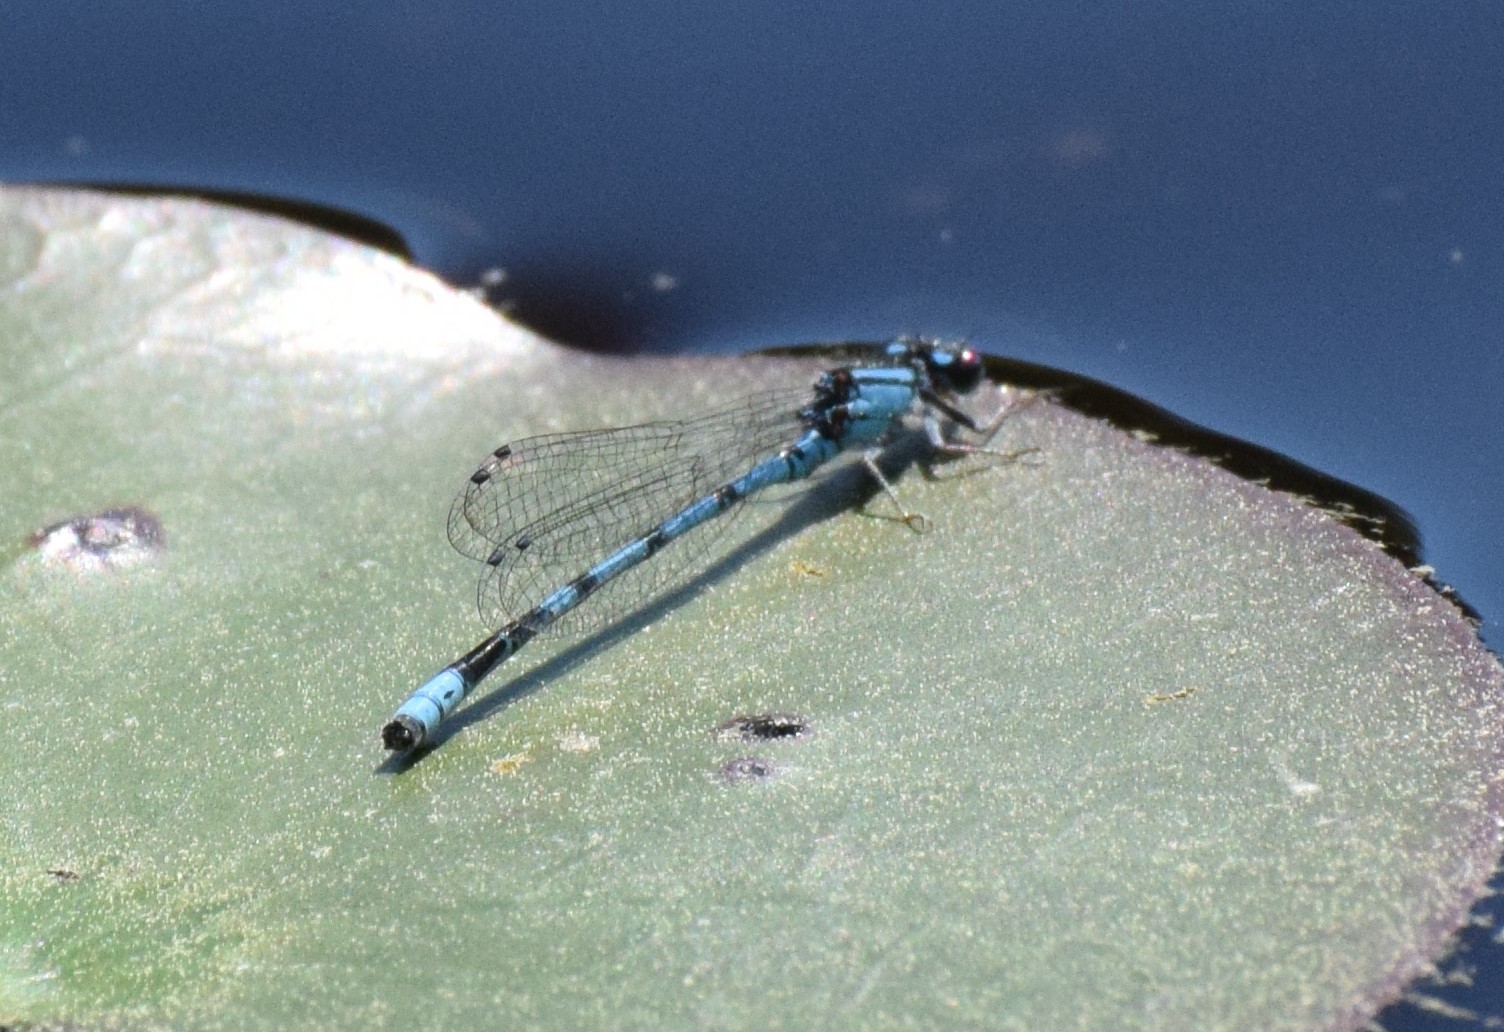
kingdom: Animalia
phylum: Arthropoda
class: Insecta
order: Odonata
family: Coenagrionidae
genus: Enallagma
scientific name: Enallagma laterale
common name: New england bluet
